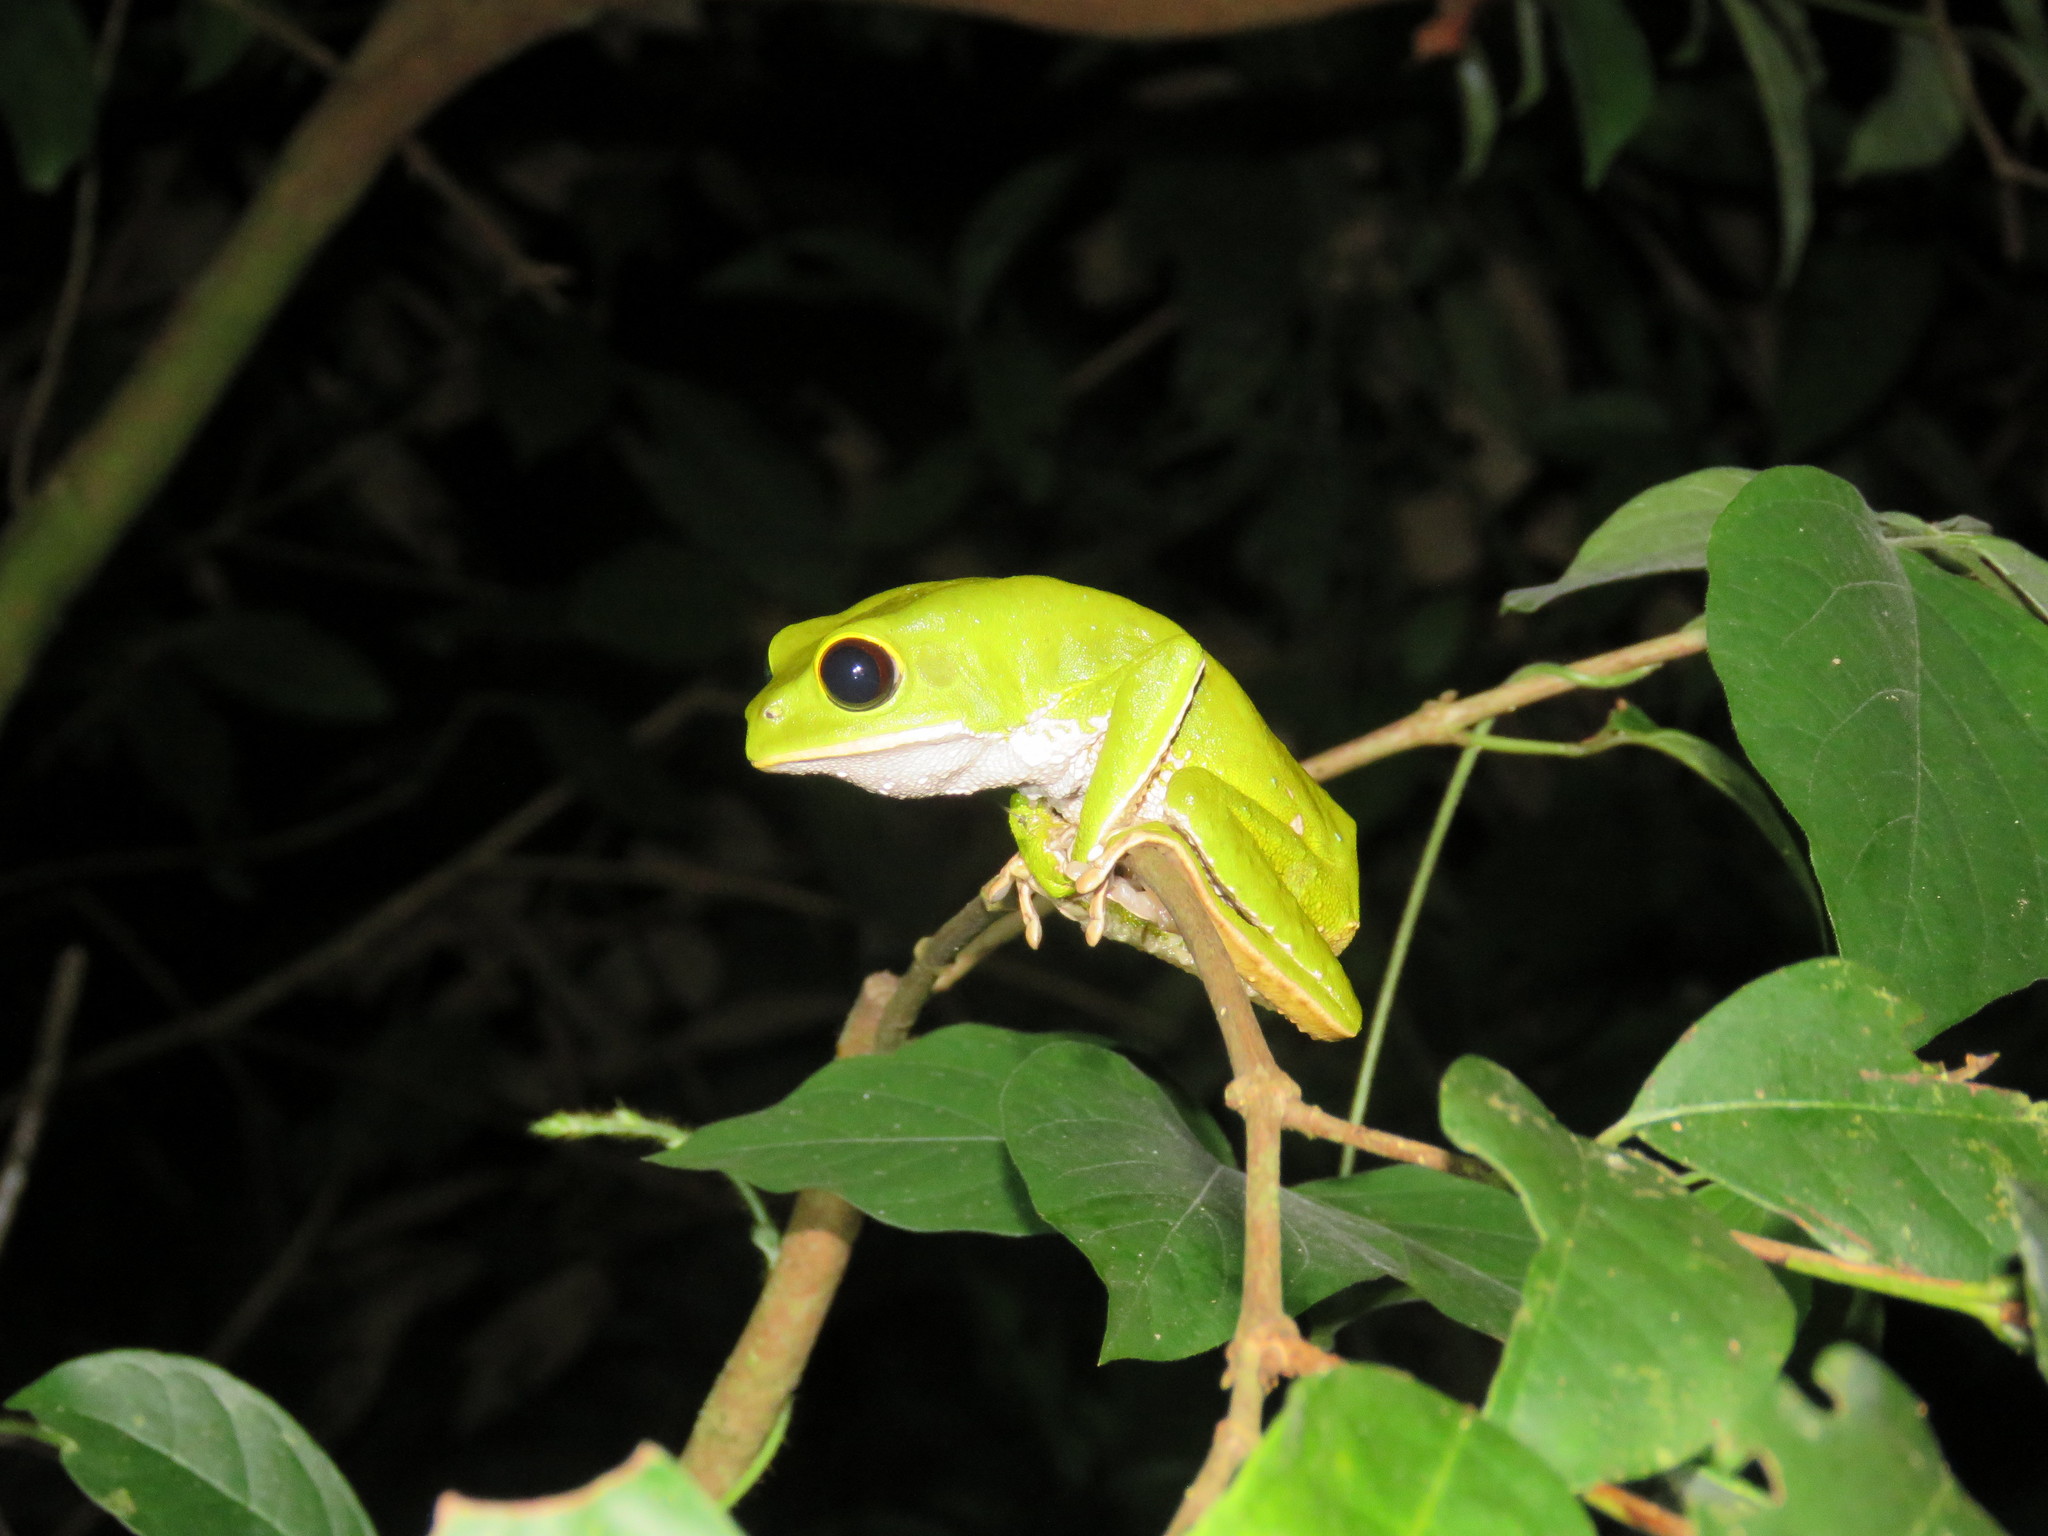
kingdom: Animalia
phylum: Chordata
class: Amphibia
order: Anura
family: Phyllomedusidae
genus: Phyllomedusa
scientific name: Phyllomedusa camba
